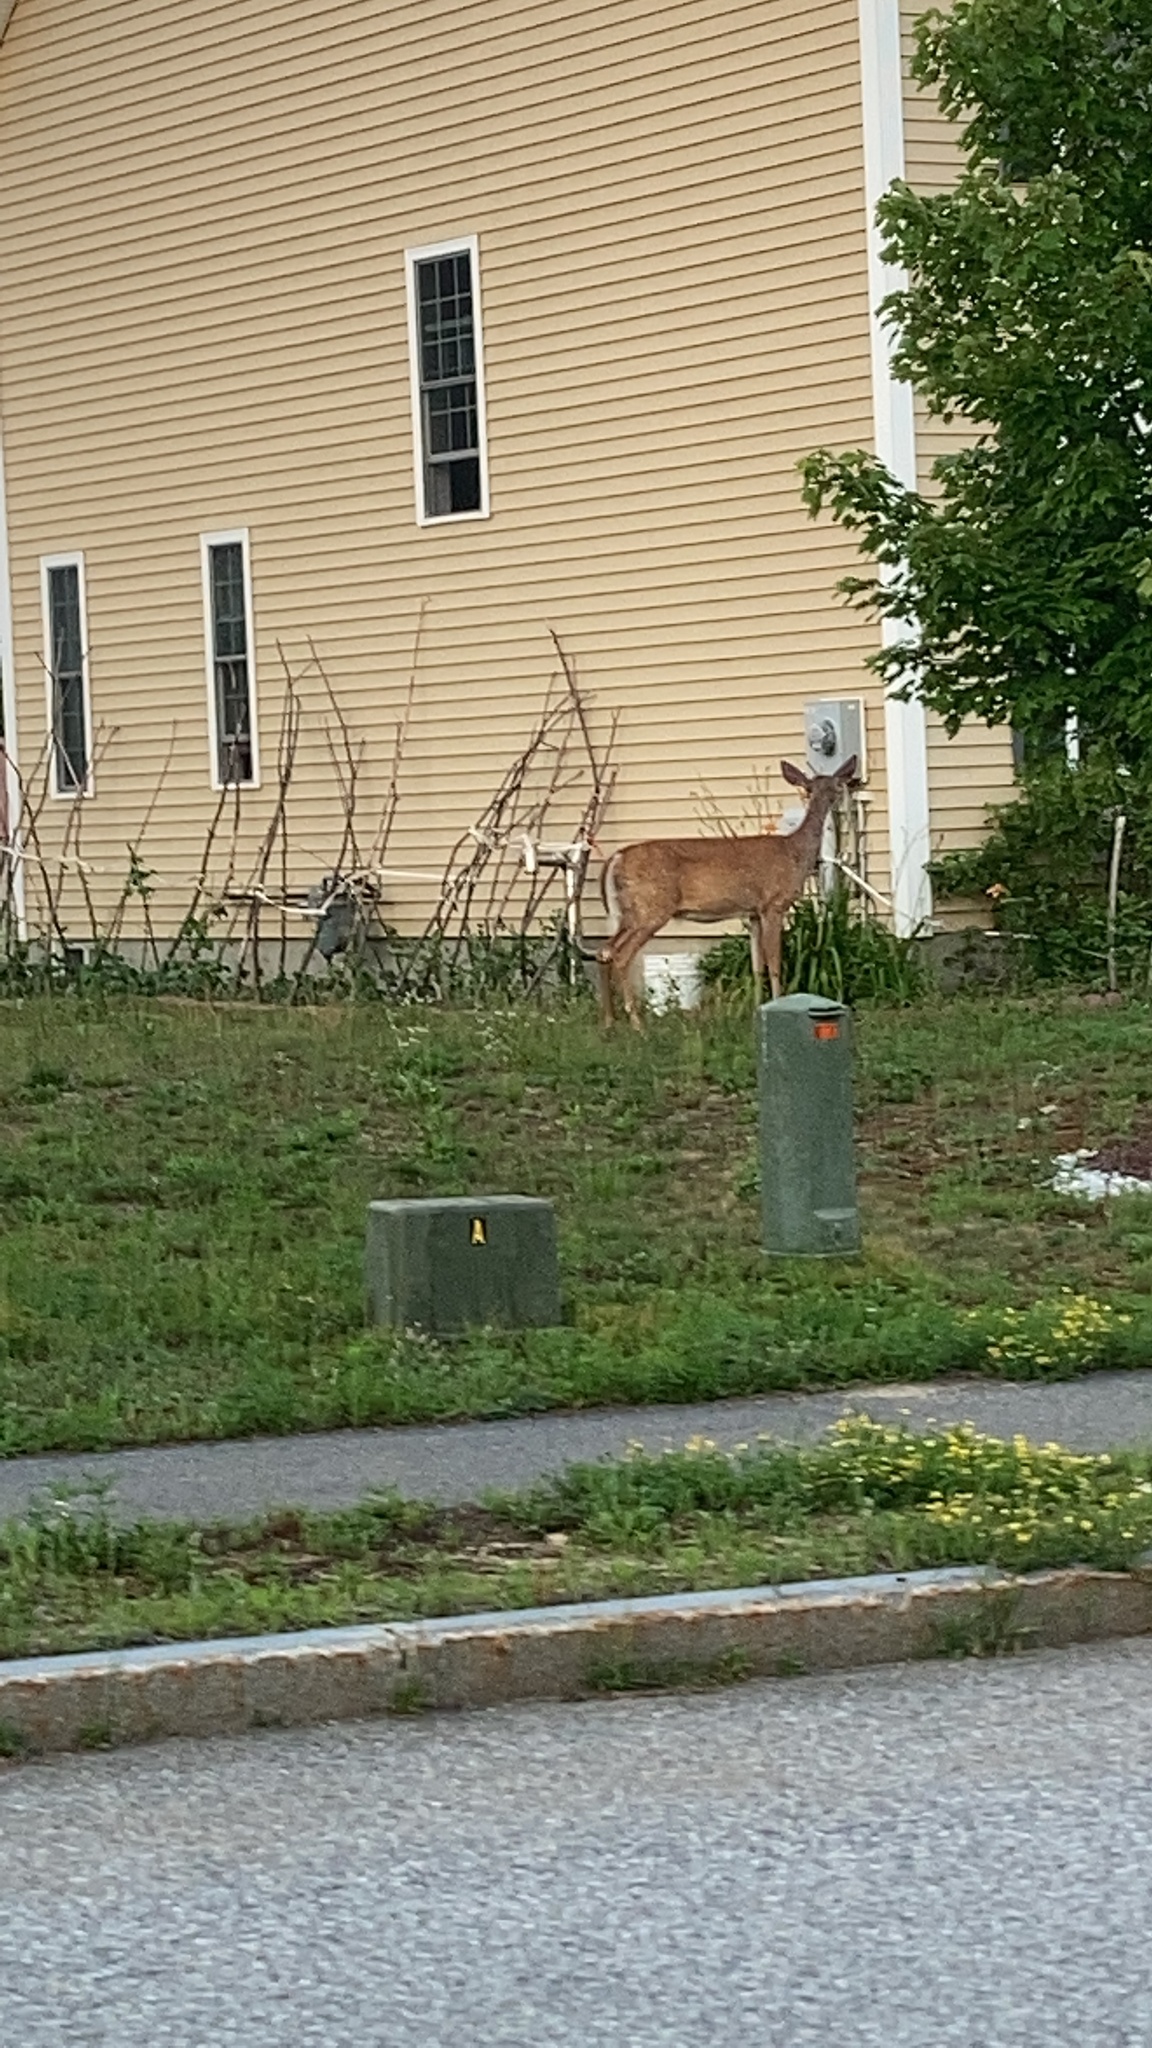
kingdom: Animalia
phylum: Chordata
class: Mammalia
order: Artiodactyla
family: Cervidae
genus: Odocoileus
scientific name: Odocoileus virginianus
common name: White-tailed deer
